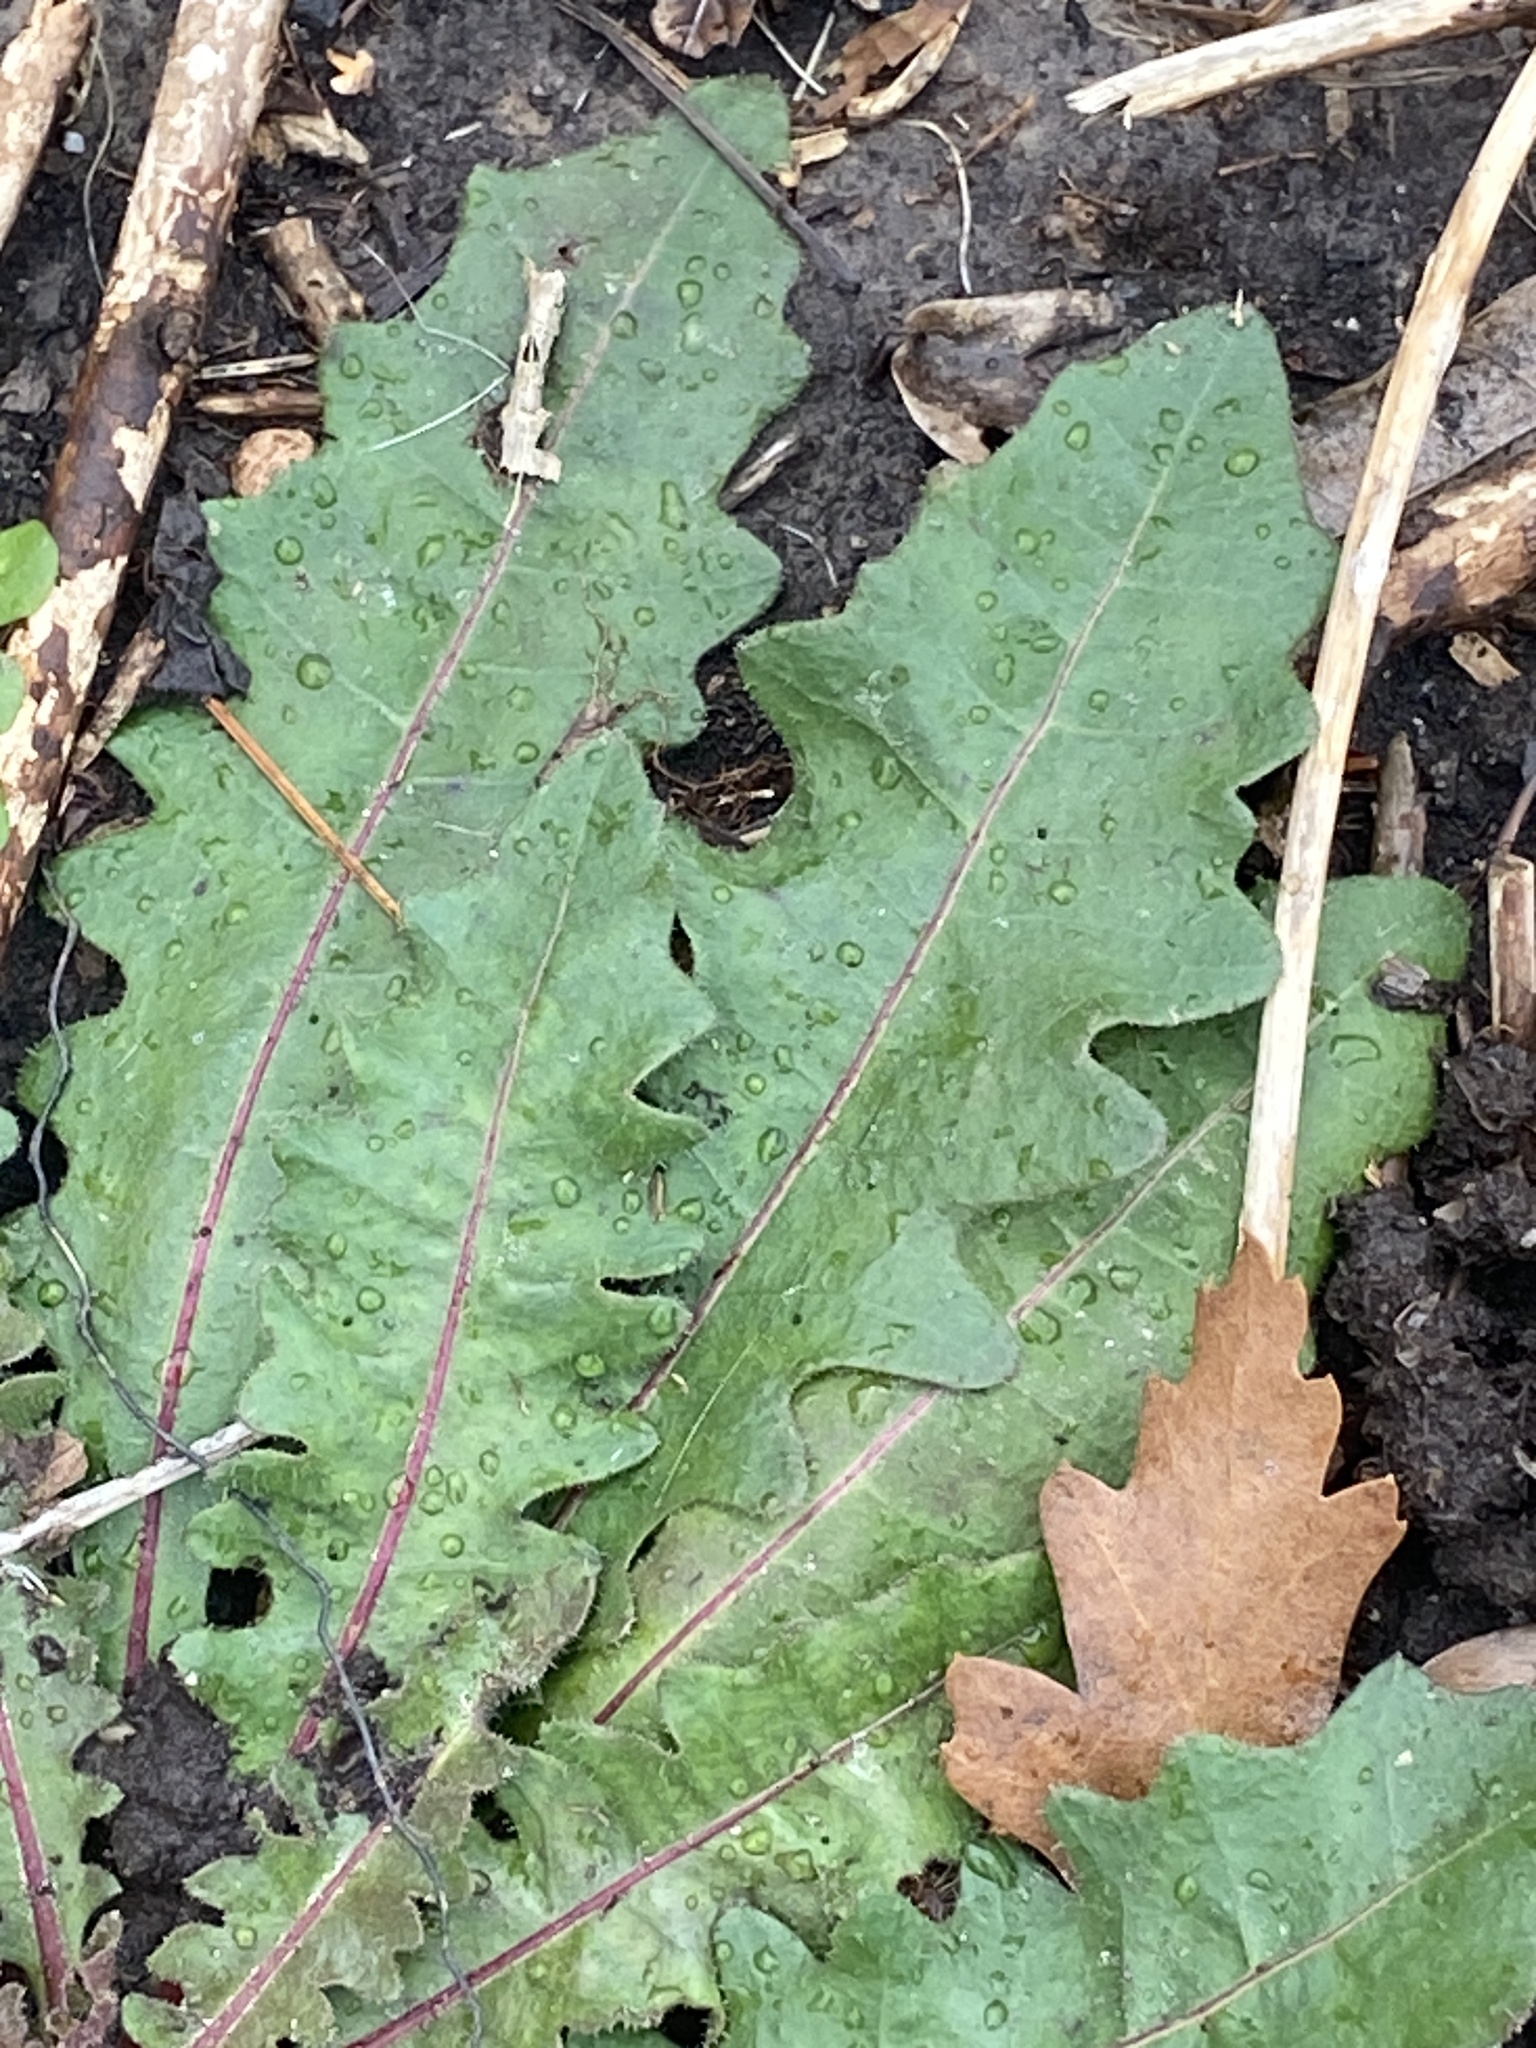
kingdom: Plantae
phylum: Tracheophyta
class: Magnoliopsida
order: Asterales
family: Asteraceae
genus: Picris
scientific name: Picris hieracioides
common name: Hawkweed oxtongue
